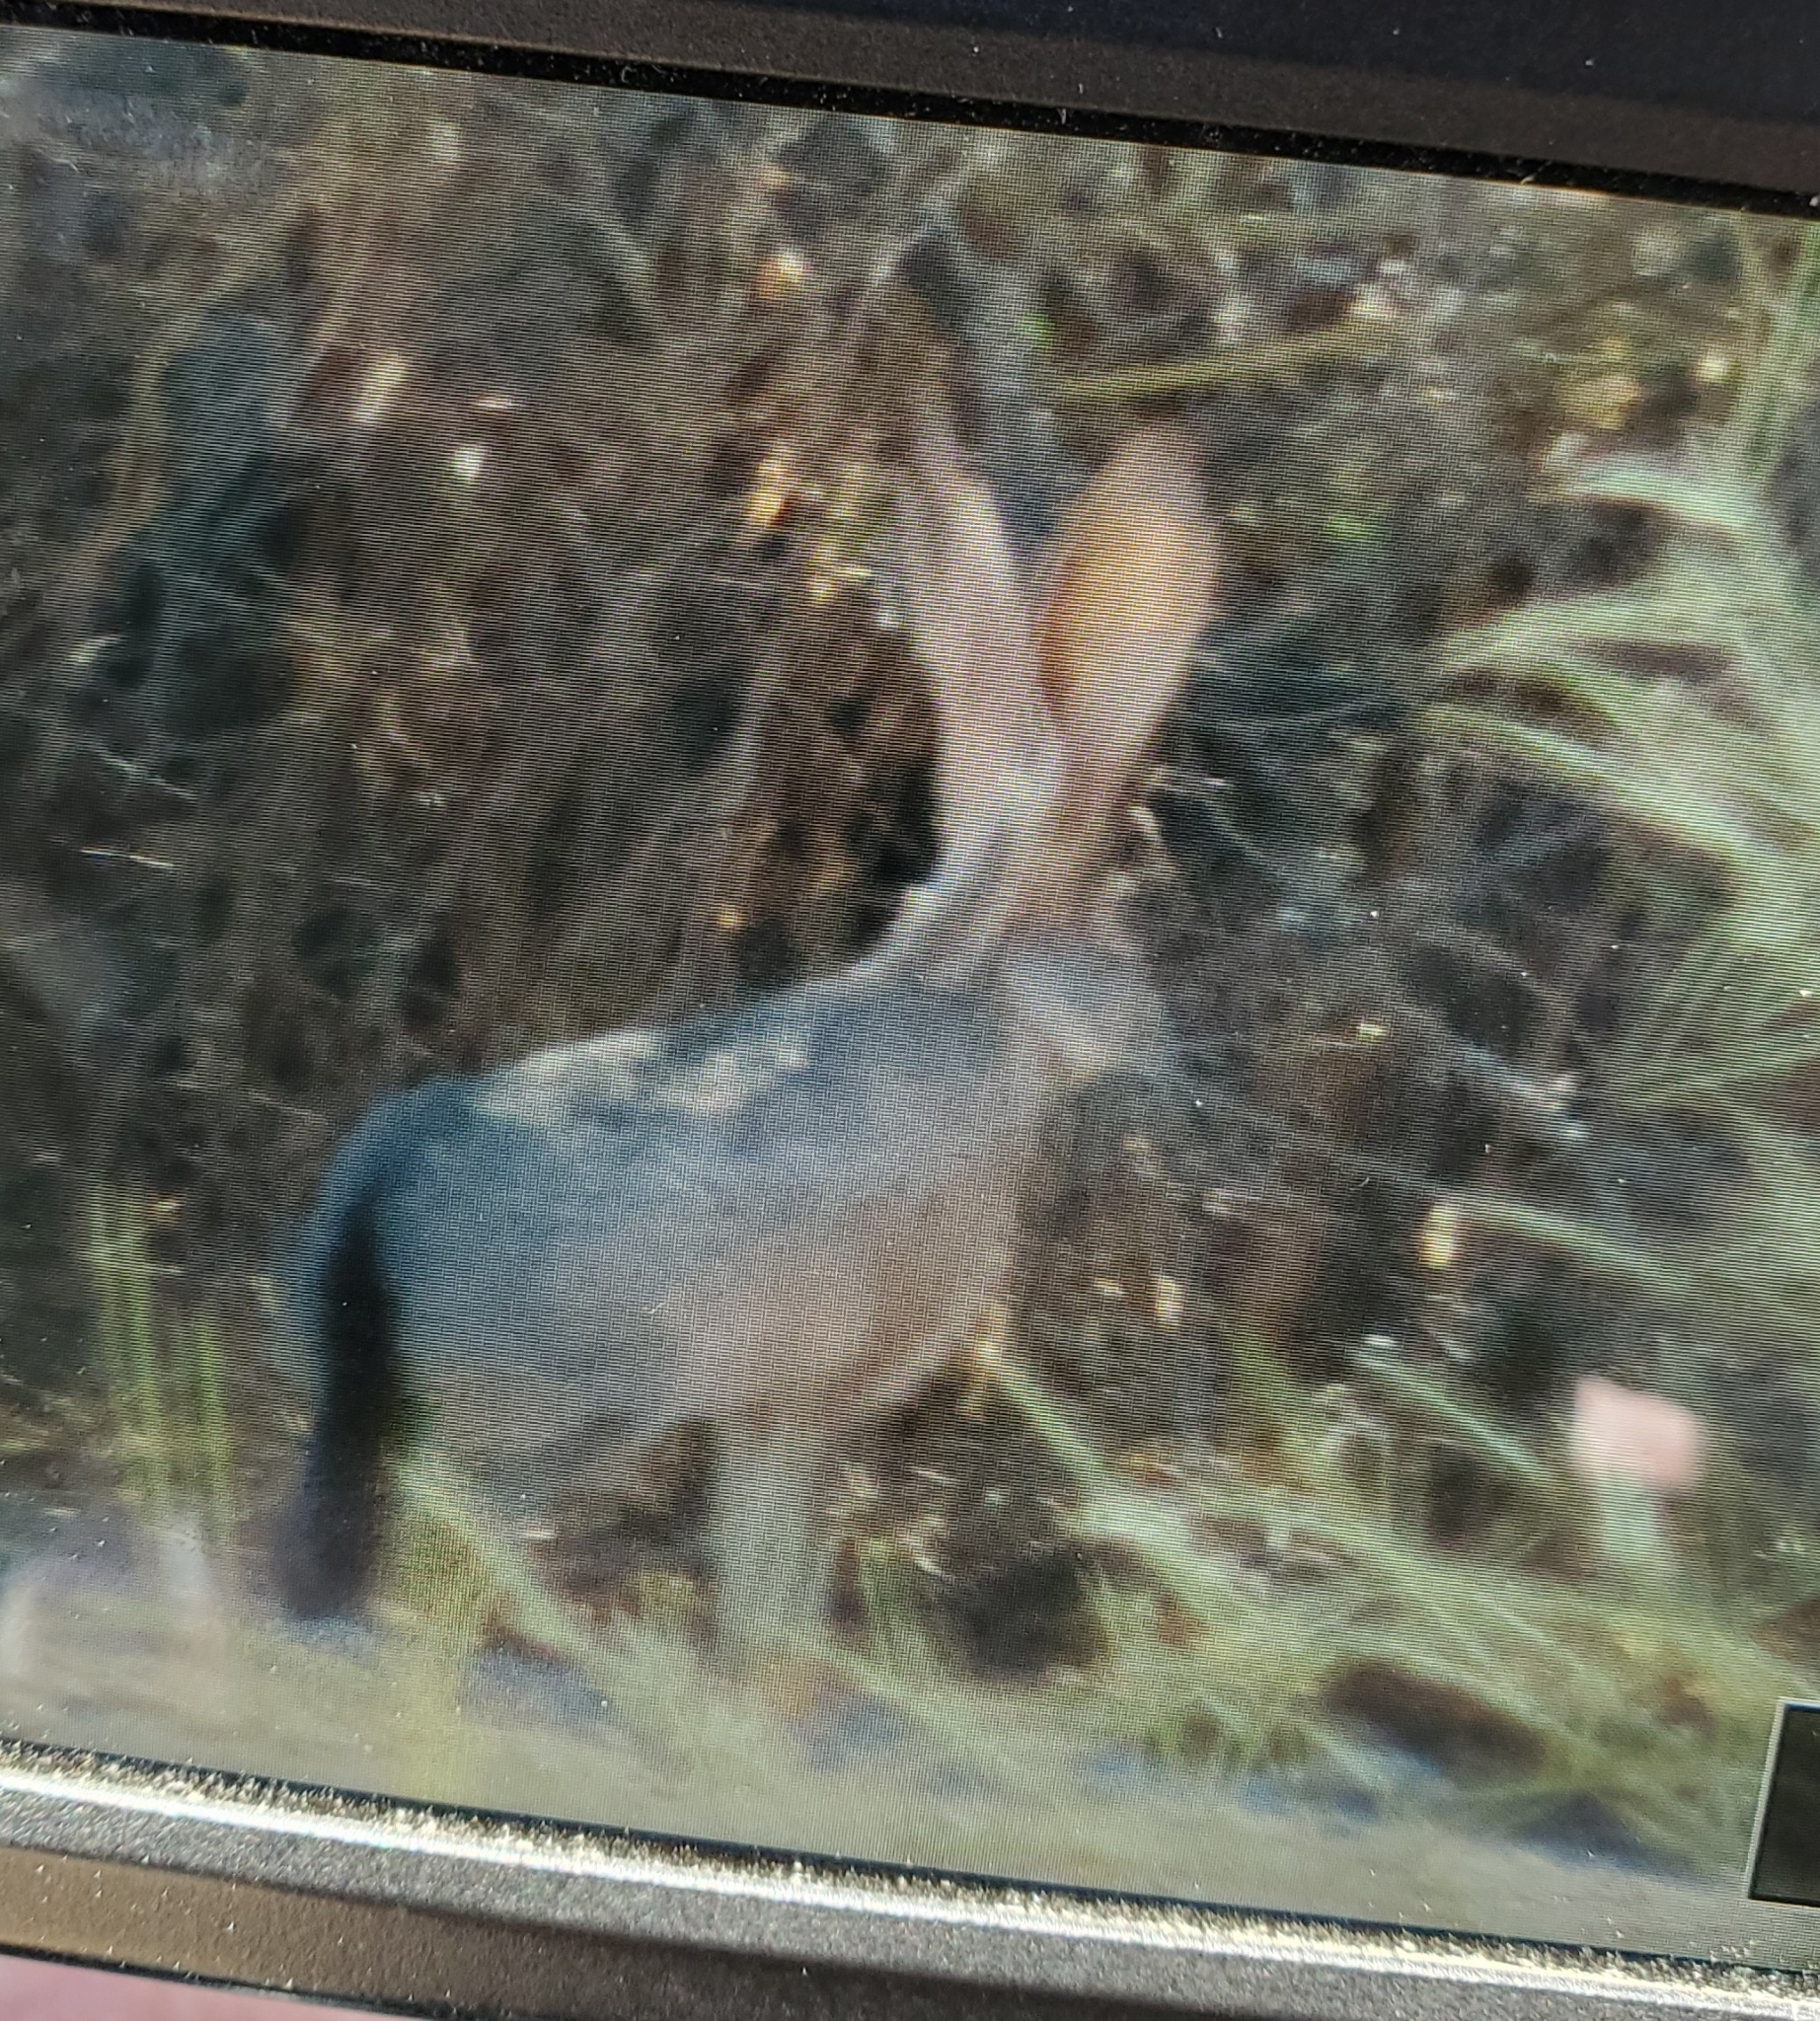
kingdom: Animalia
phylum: Chordata
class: Mammalia
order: Lagomorpha
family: Leporidae
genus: Lepus
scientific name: Lepus californicus
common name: Black-tailed jackrabbit
